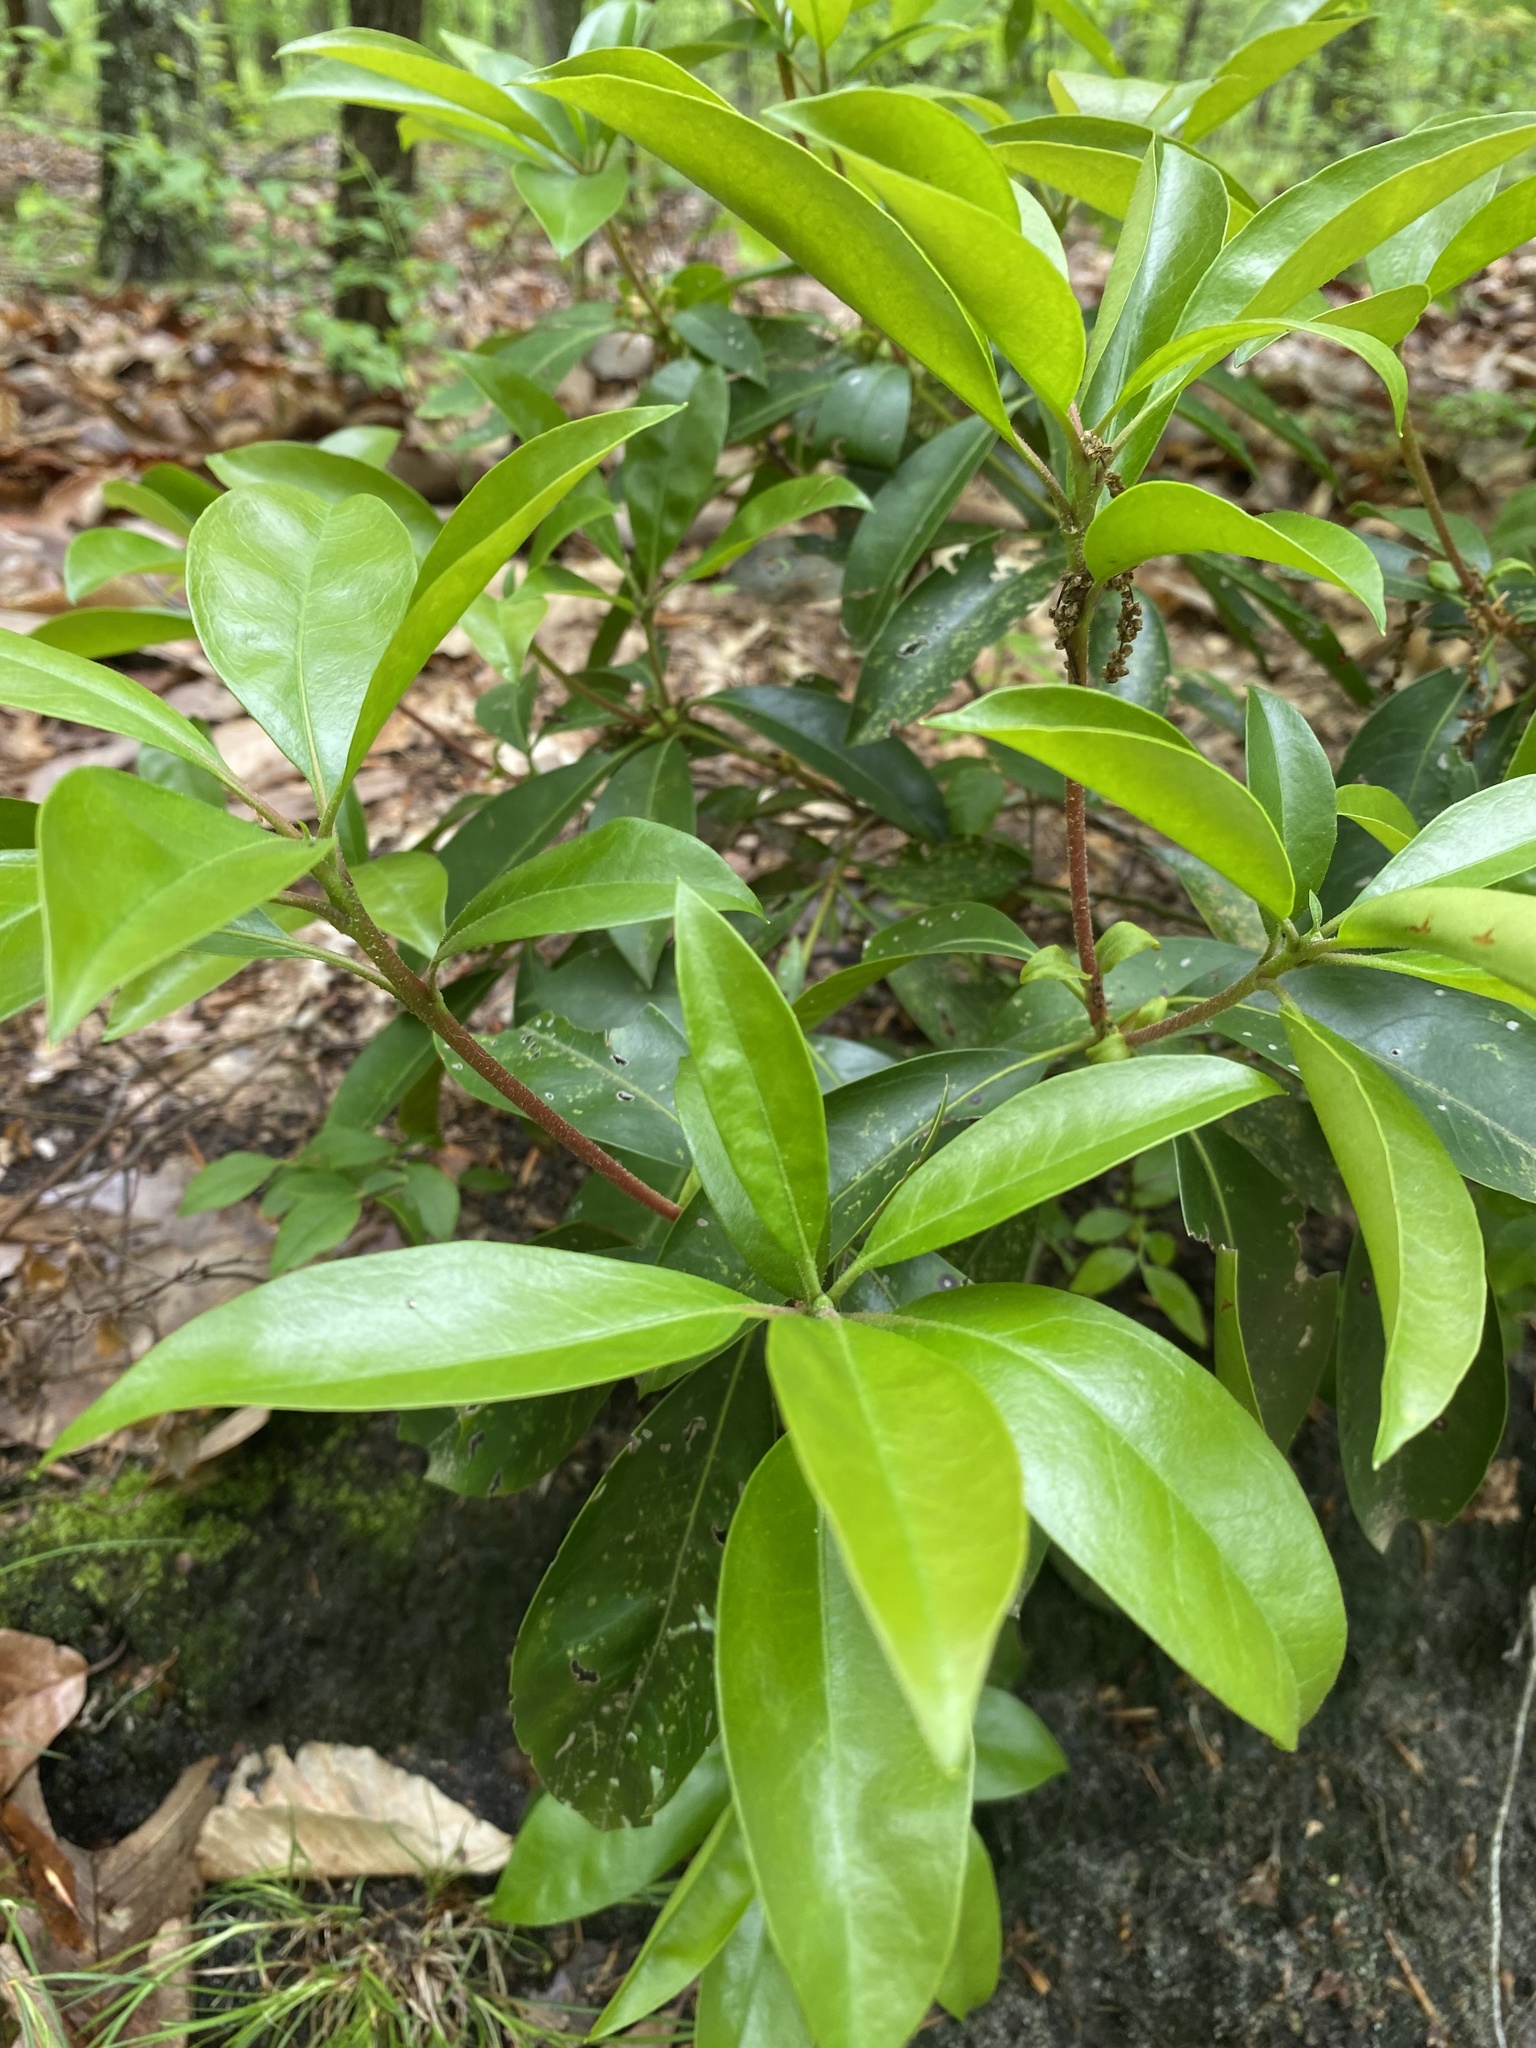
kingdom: Plantae
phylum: Tracheophyta
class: Magnoliopsida
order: Ericales
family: Ericaceae
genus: Kalmia
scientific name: Kalmia latifolia
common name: Mountain-laurel
